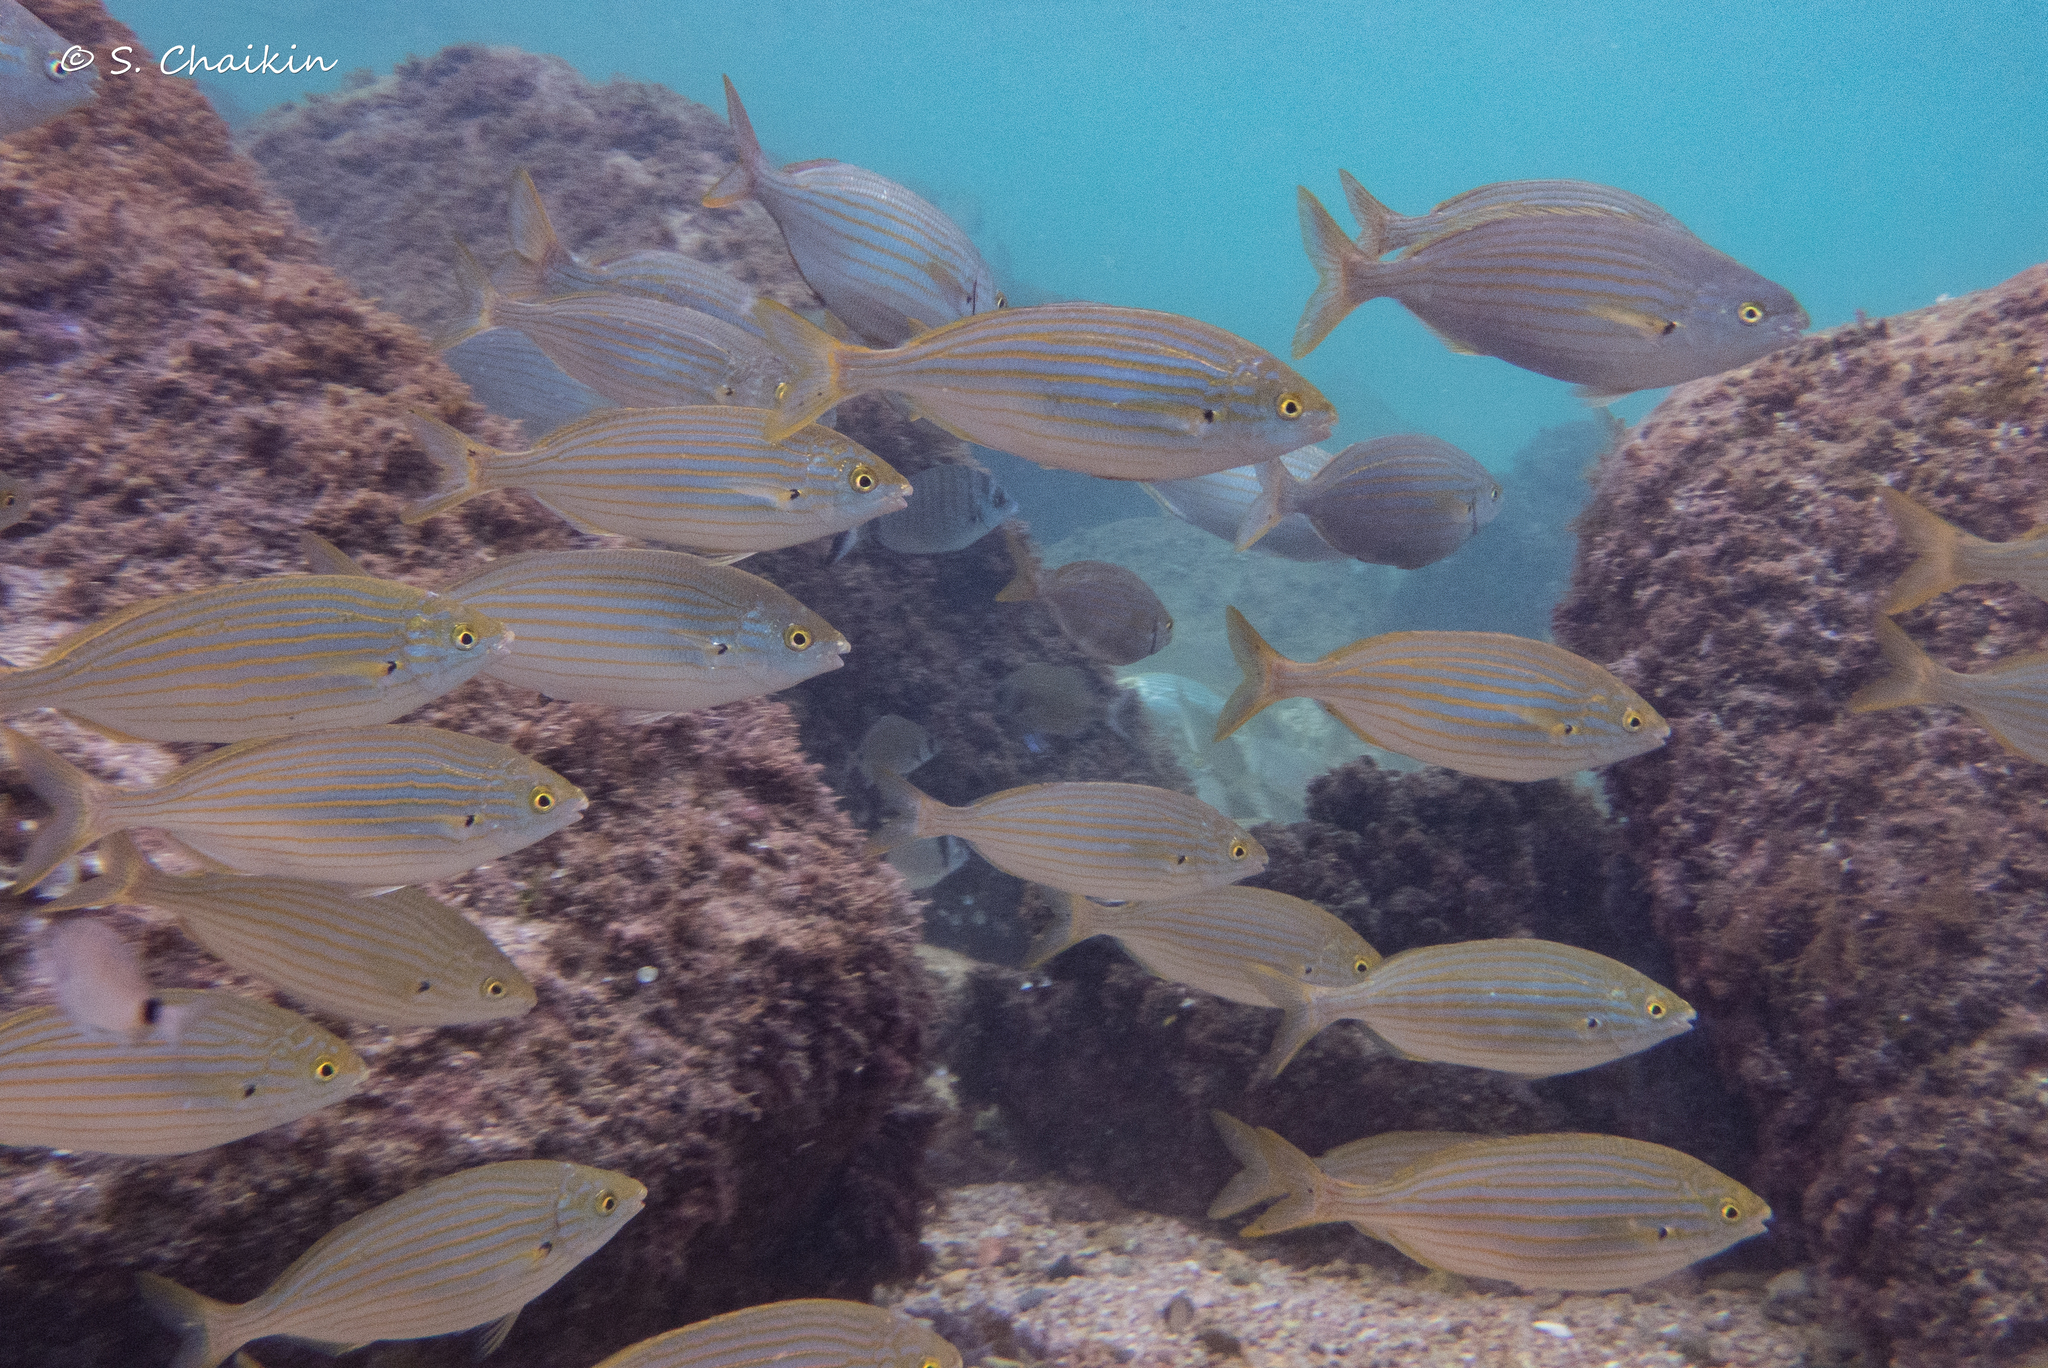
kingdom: Animalia
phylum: Chordata
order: Perciformes
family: Sparidae
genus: Sarpa
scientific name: Sarpa salpa
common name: Salema
